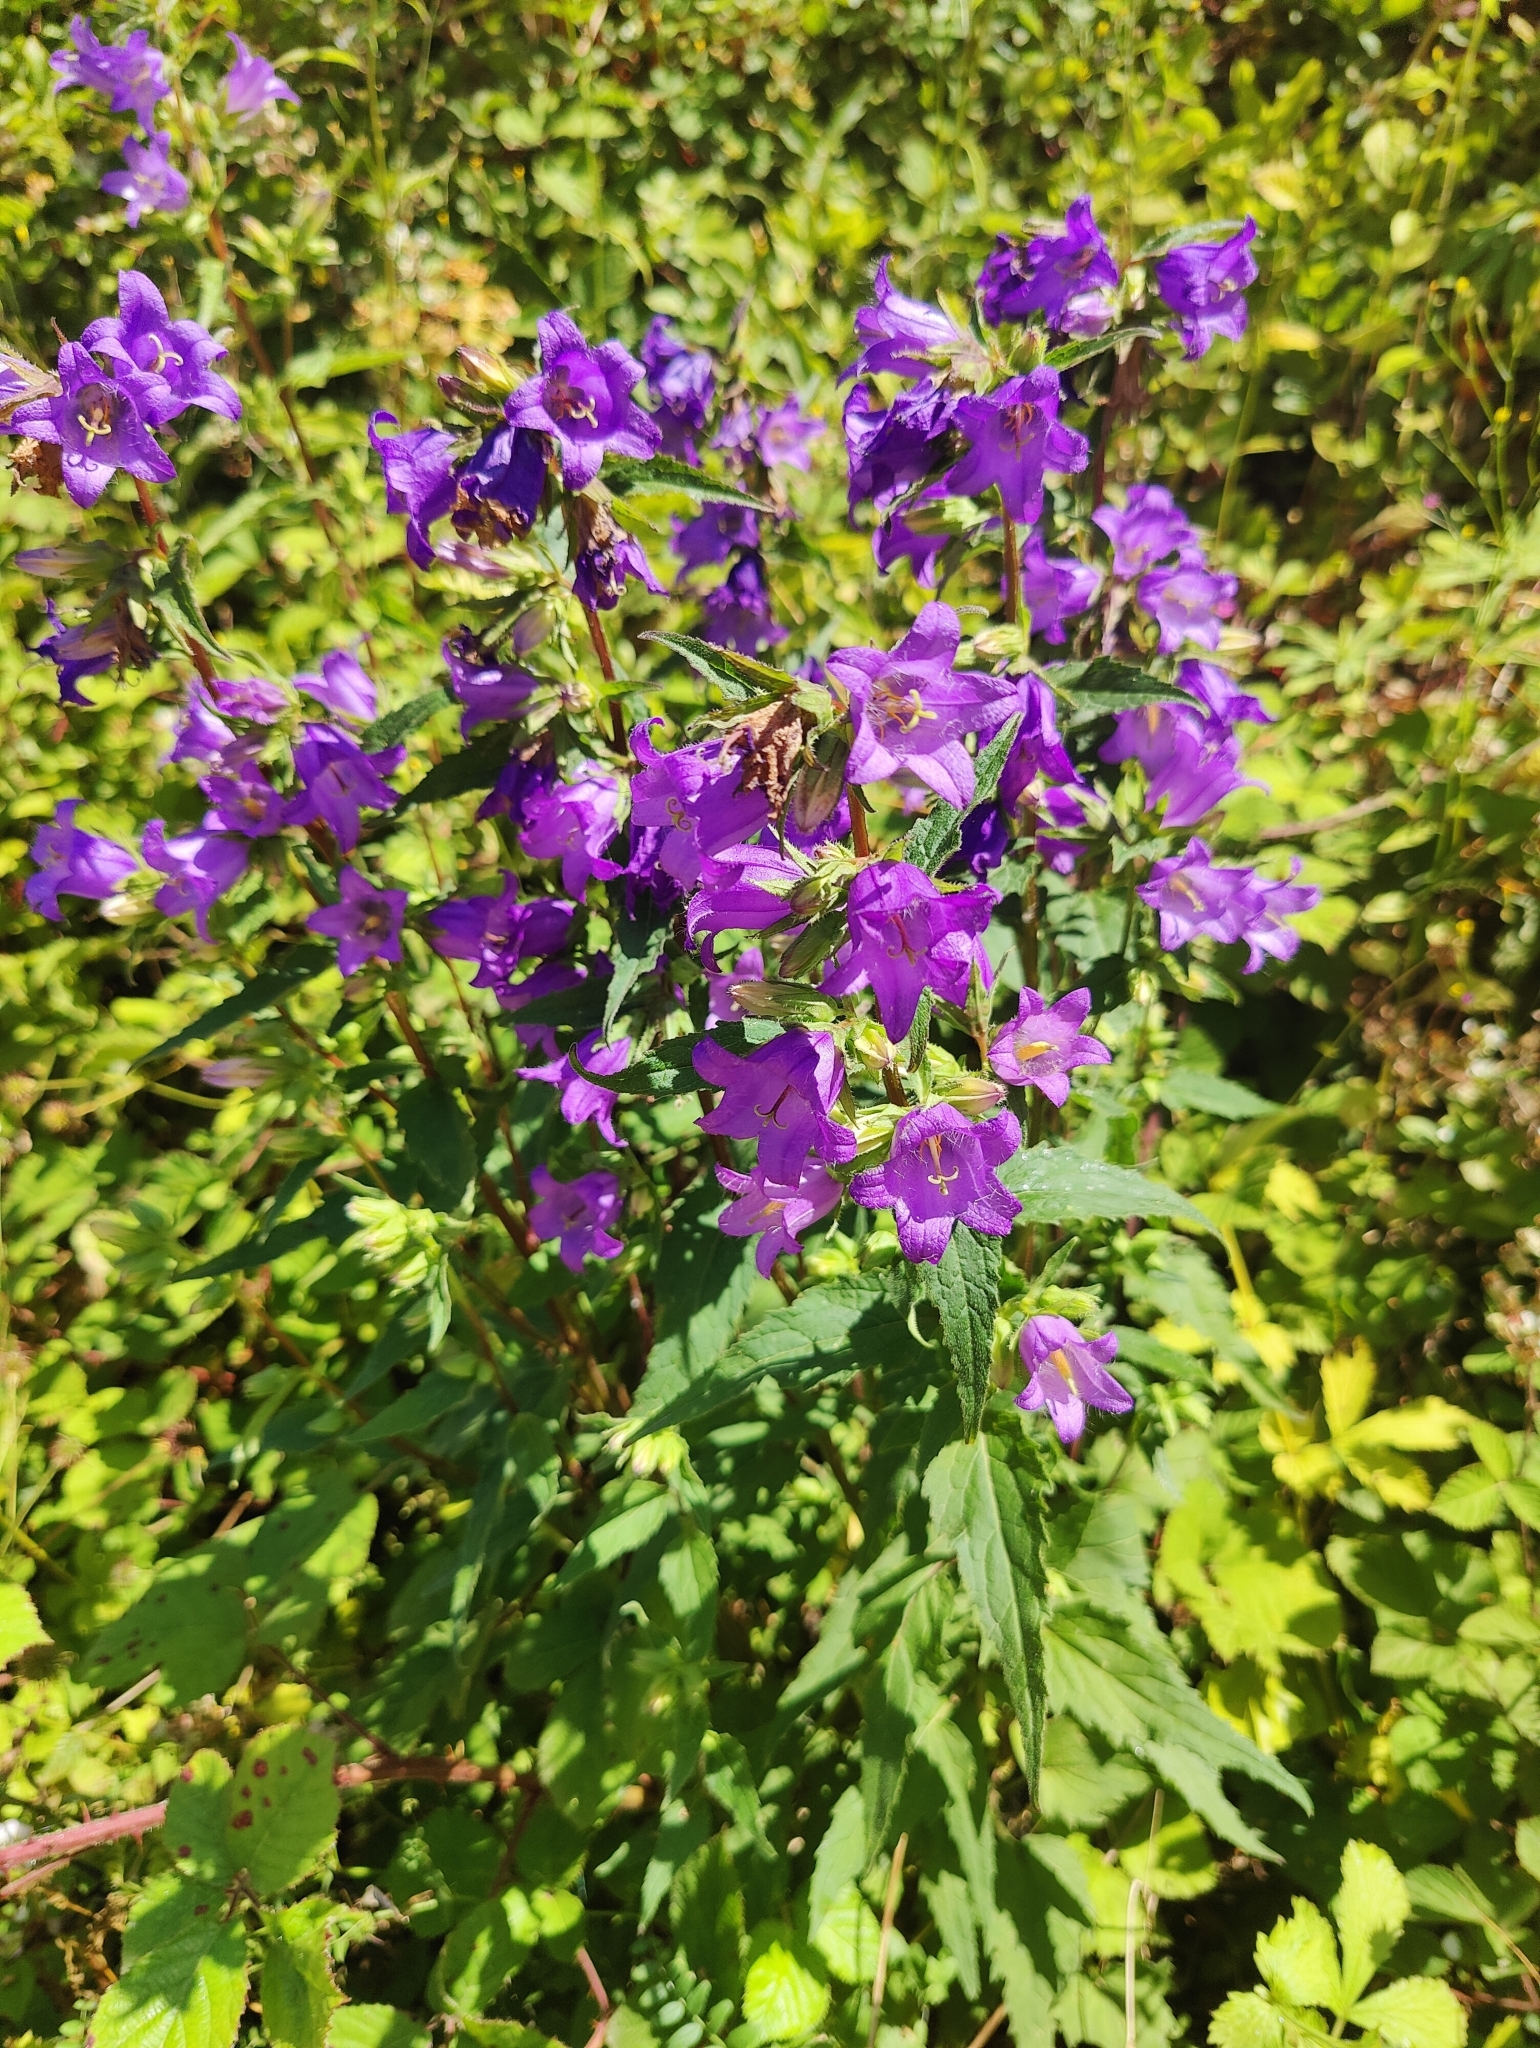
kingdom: Plantae
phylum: Tracheophyta
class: Magnoliopsida
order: Asterales
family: Campanulaceae
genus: Campanula
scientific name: Campanula trachelium
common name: Nettle-leaved bellflower
